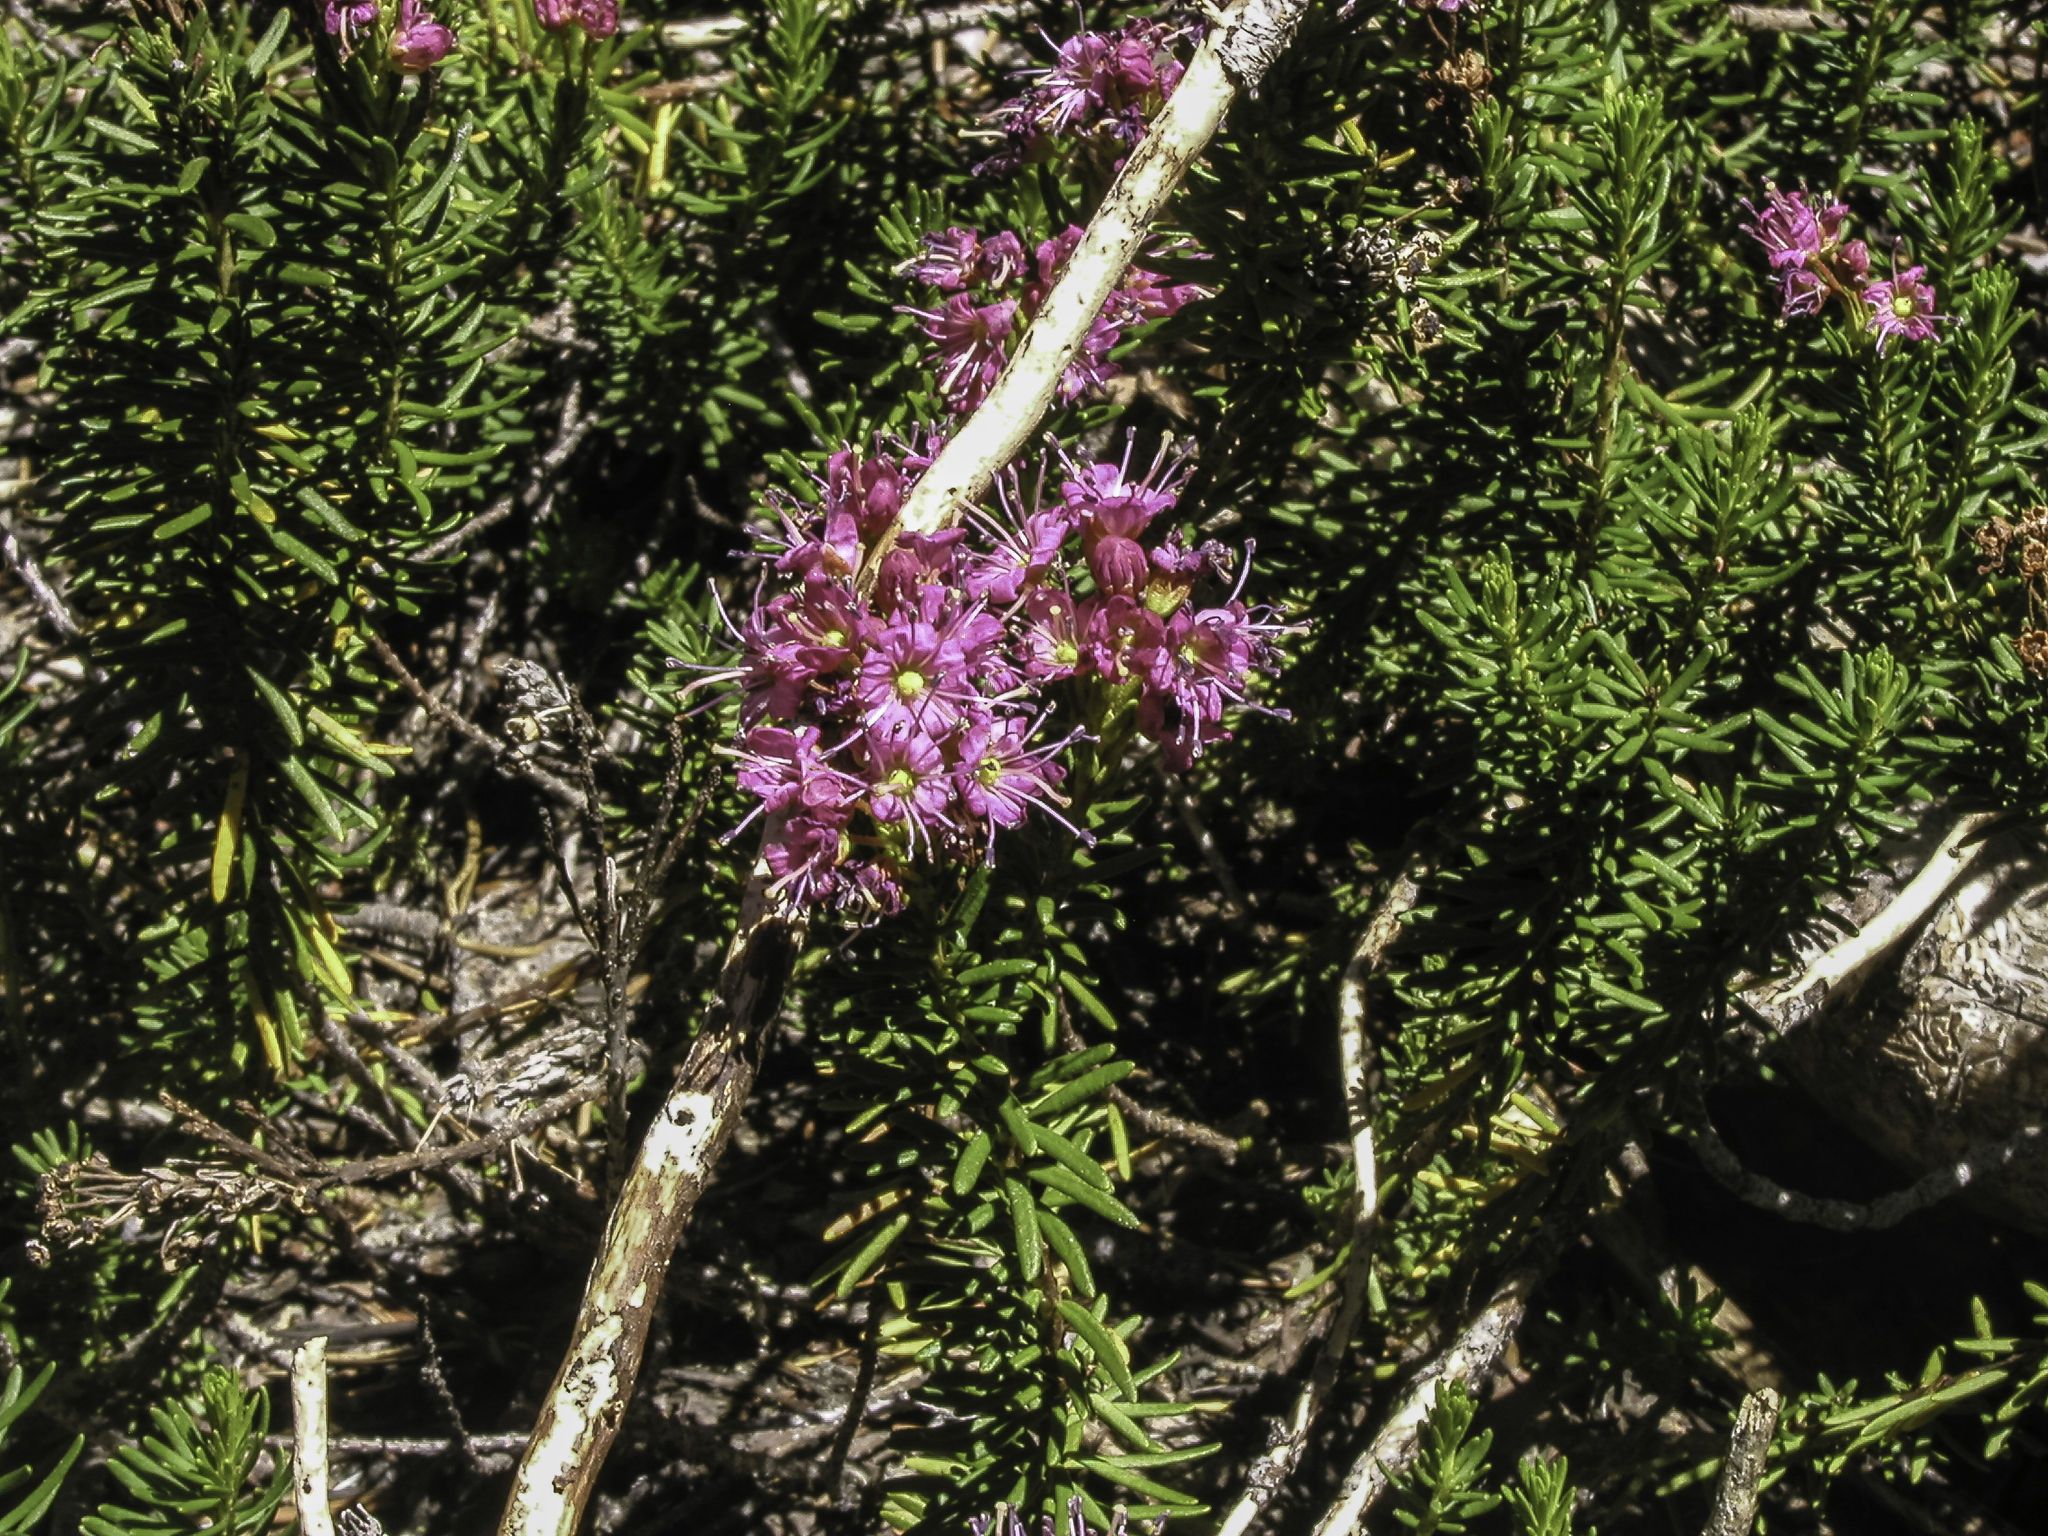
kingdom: Plantae
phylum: Tracheophyta
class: Magnoliopsida
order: Ericales
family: Ericaceae
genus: Phyllodoce
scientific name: Phyllodoce breweri
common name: Brewer's mountain-heather
